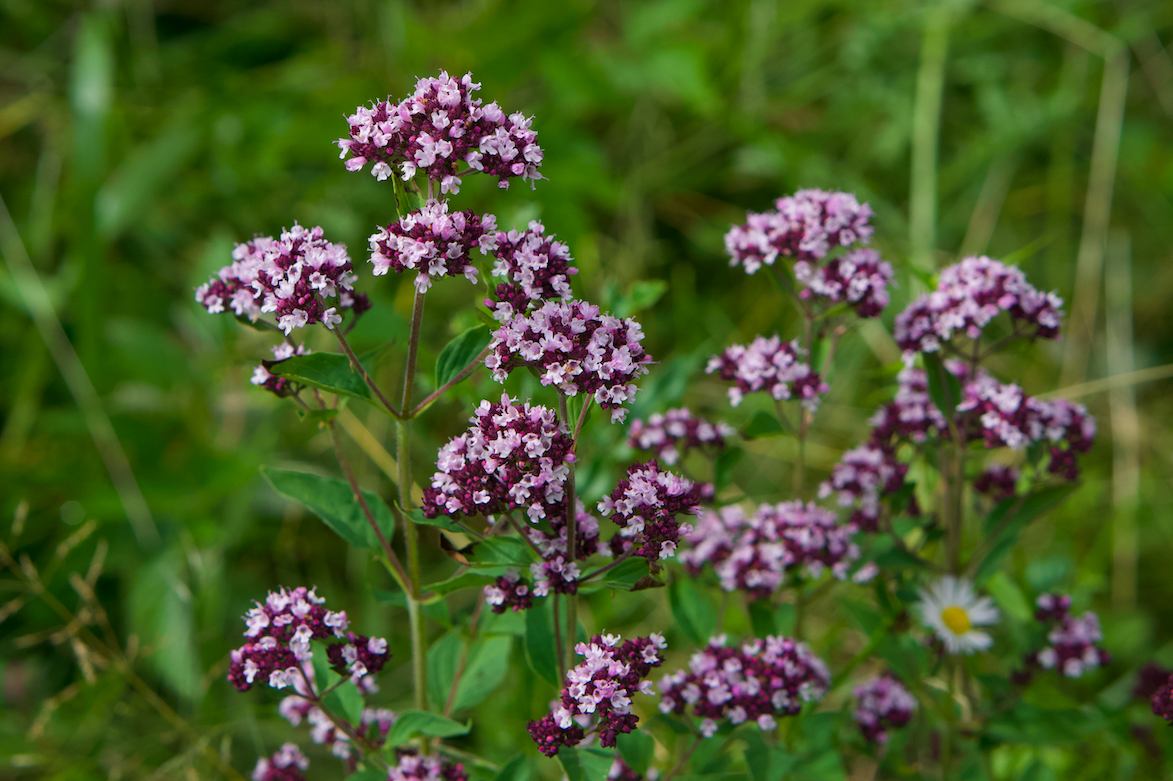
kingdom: Plantae
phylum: Tracheophyta
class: Magnoliopsida
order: Lamiales
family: Lamiaceae
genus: Origanum
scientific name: Origanum vulgare
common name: Wild marjoram
